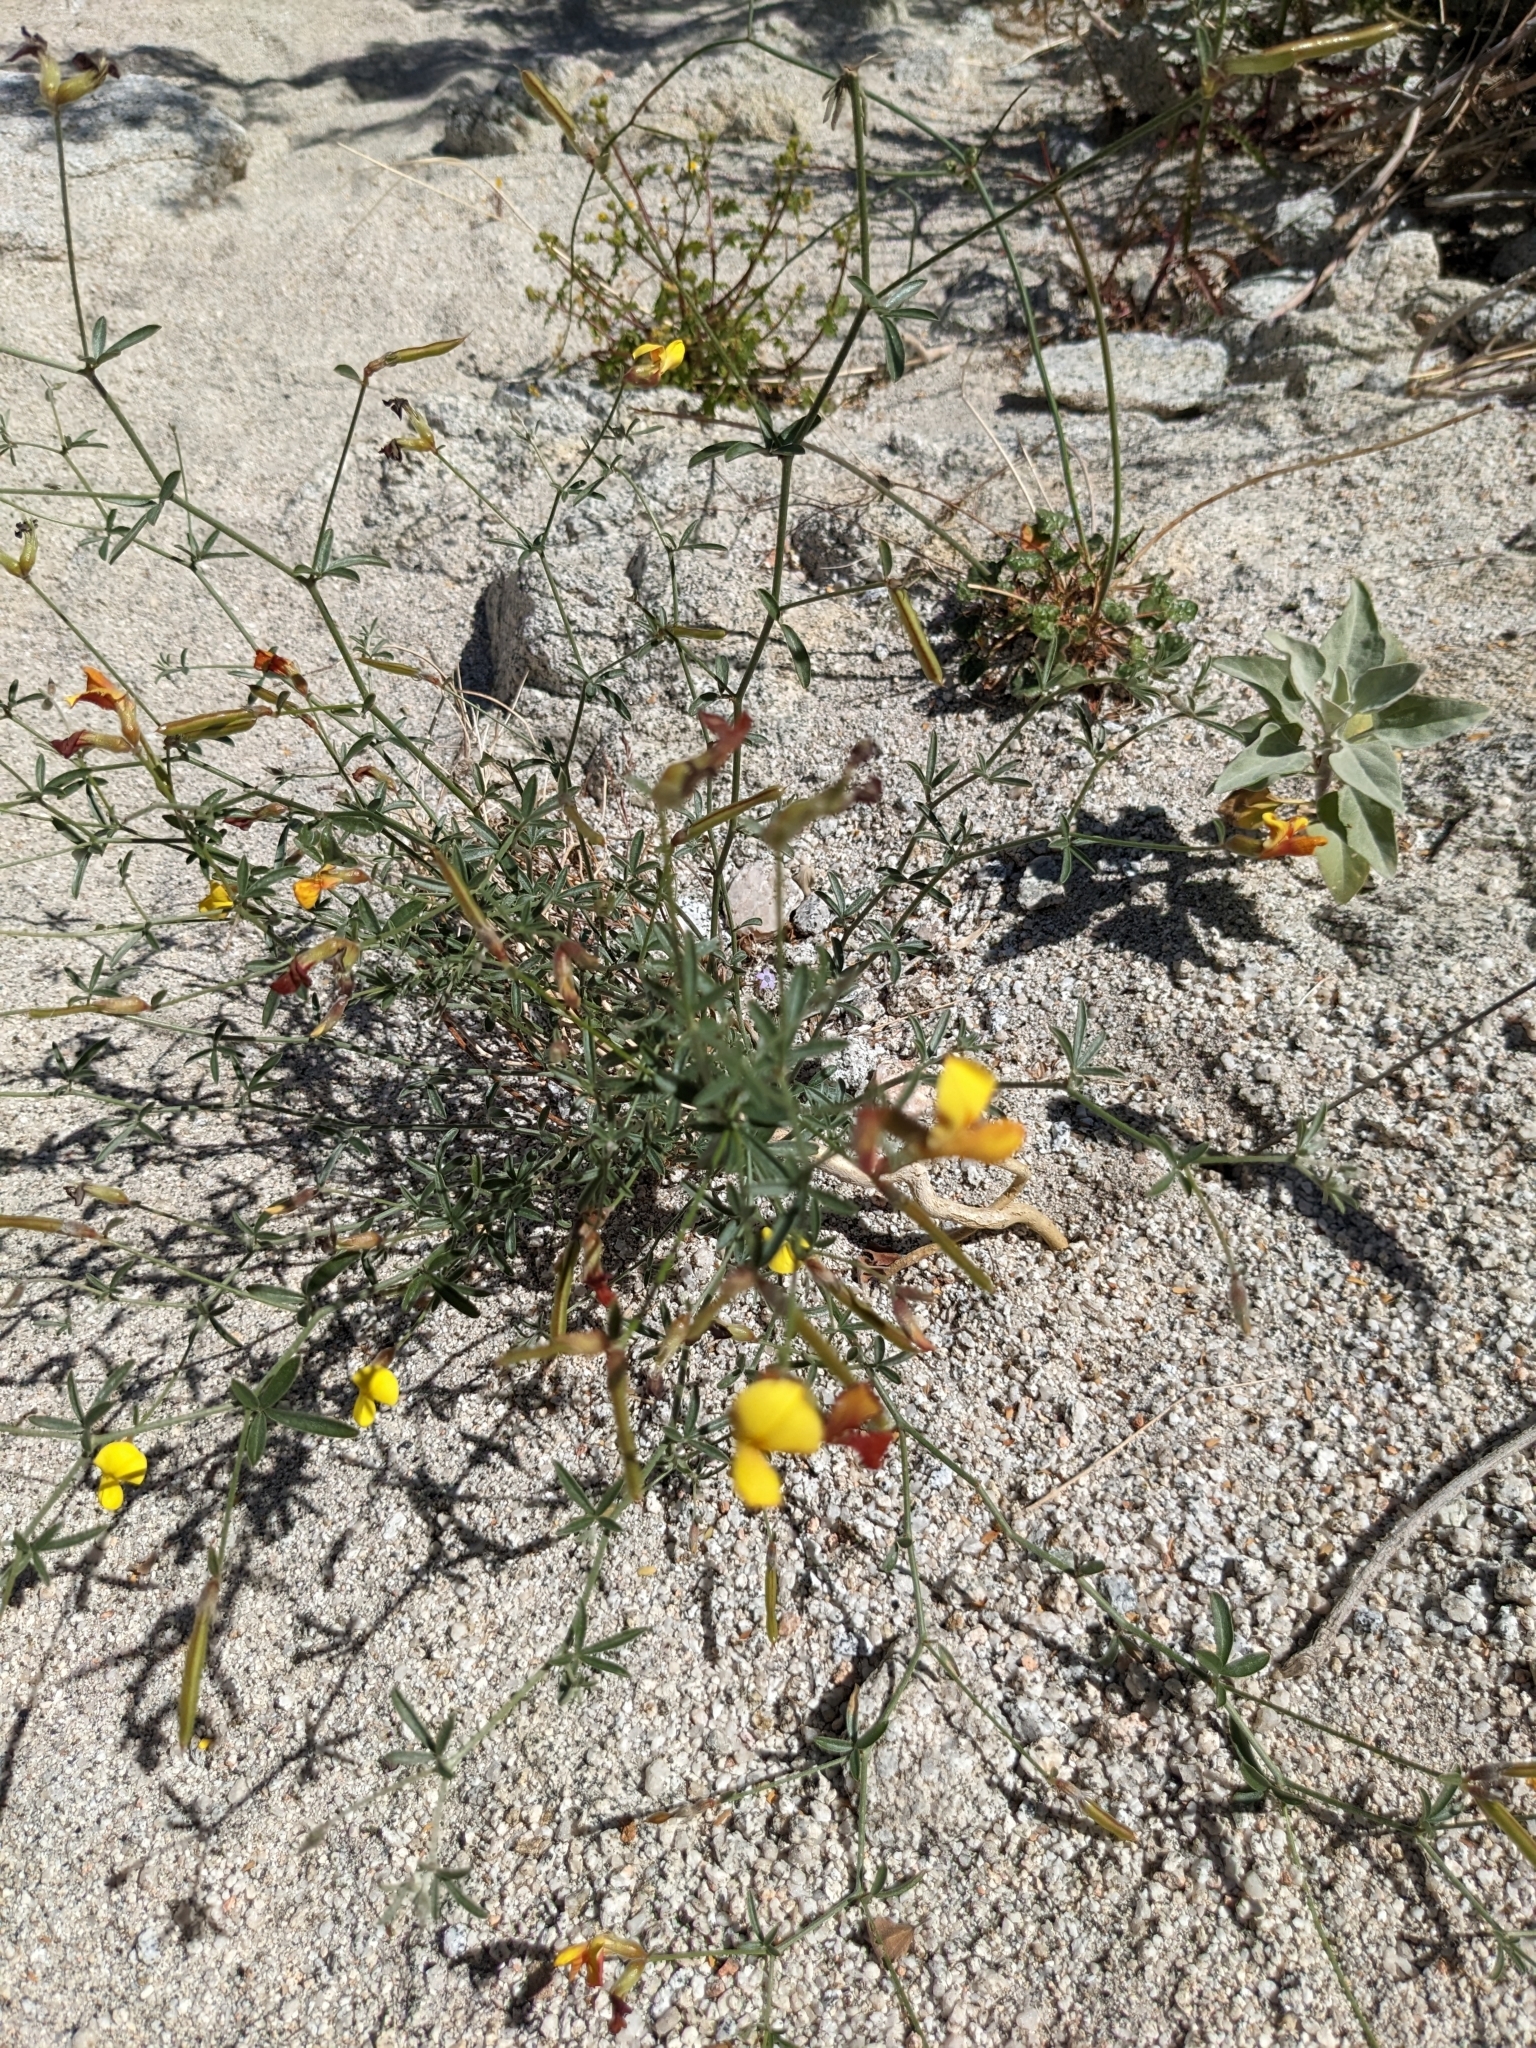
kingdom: Plantae
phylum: Tracheophyta
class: Magnoliopsida
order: Fabales
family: Fabaceae
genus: Acmispon
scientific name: Acmispon rigidus
